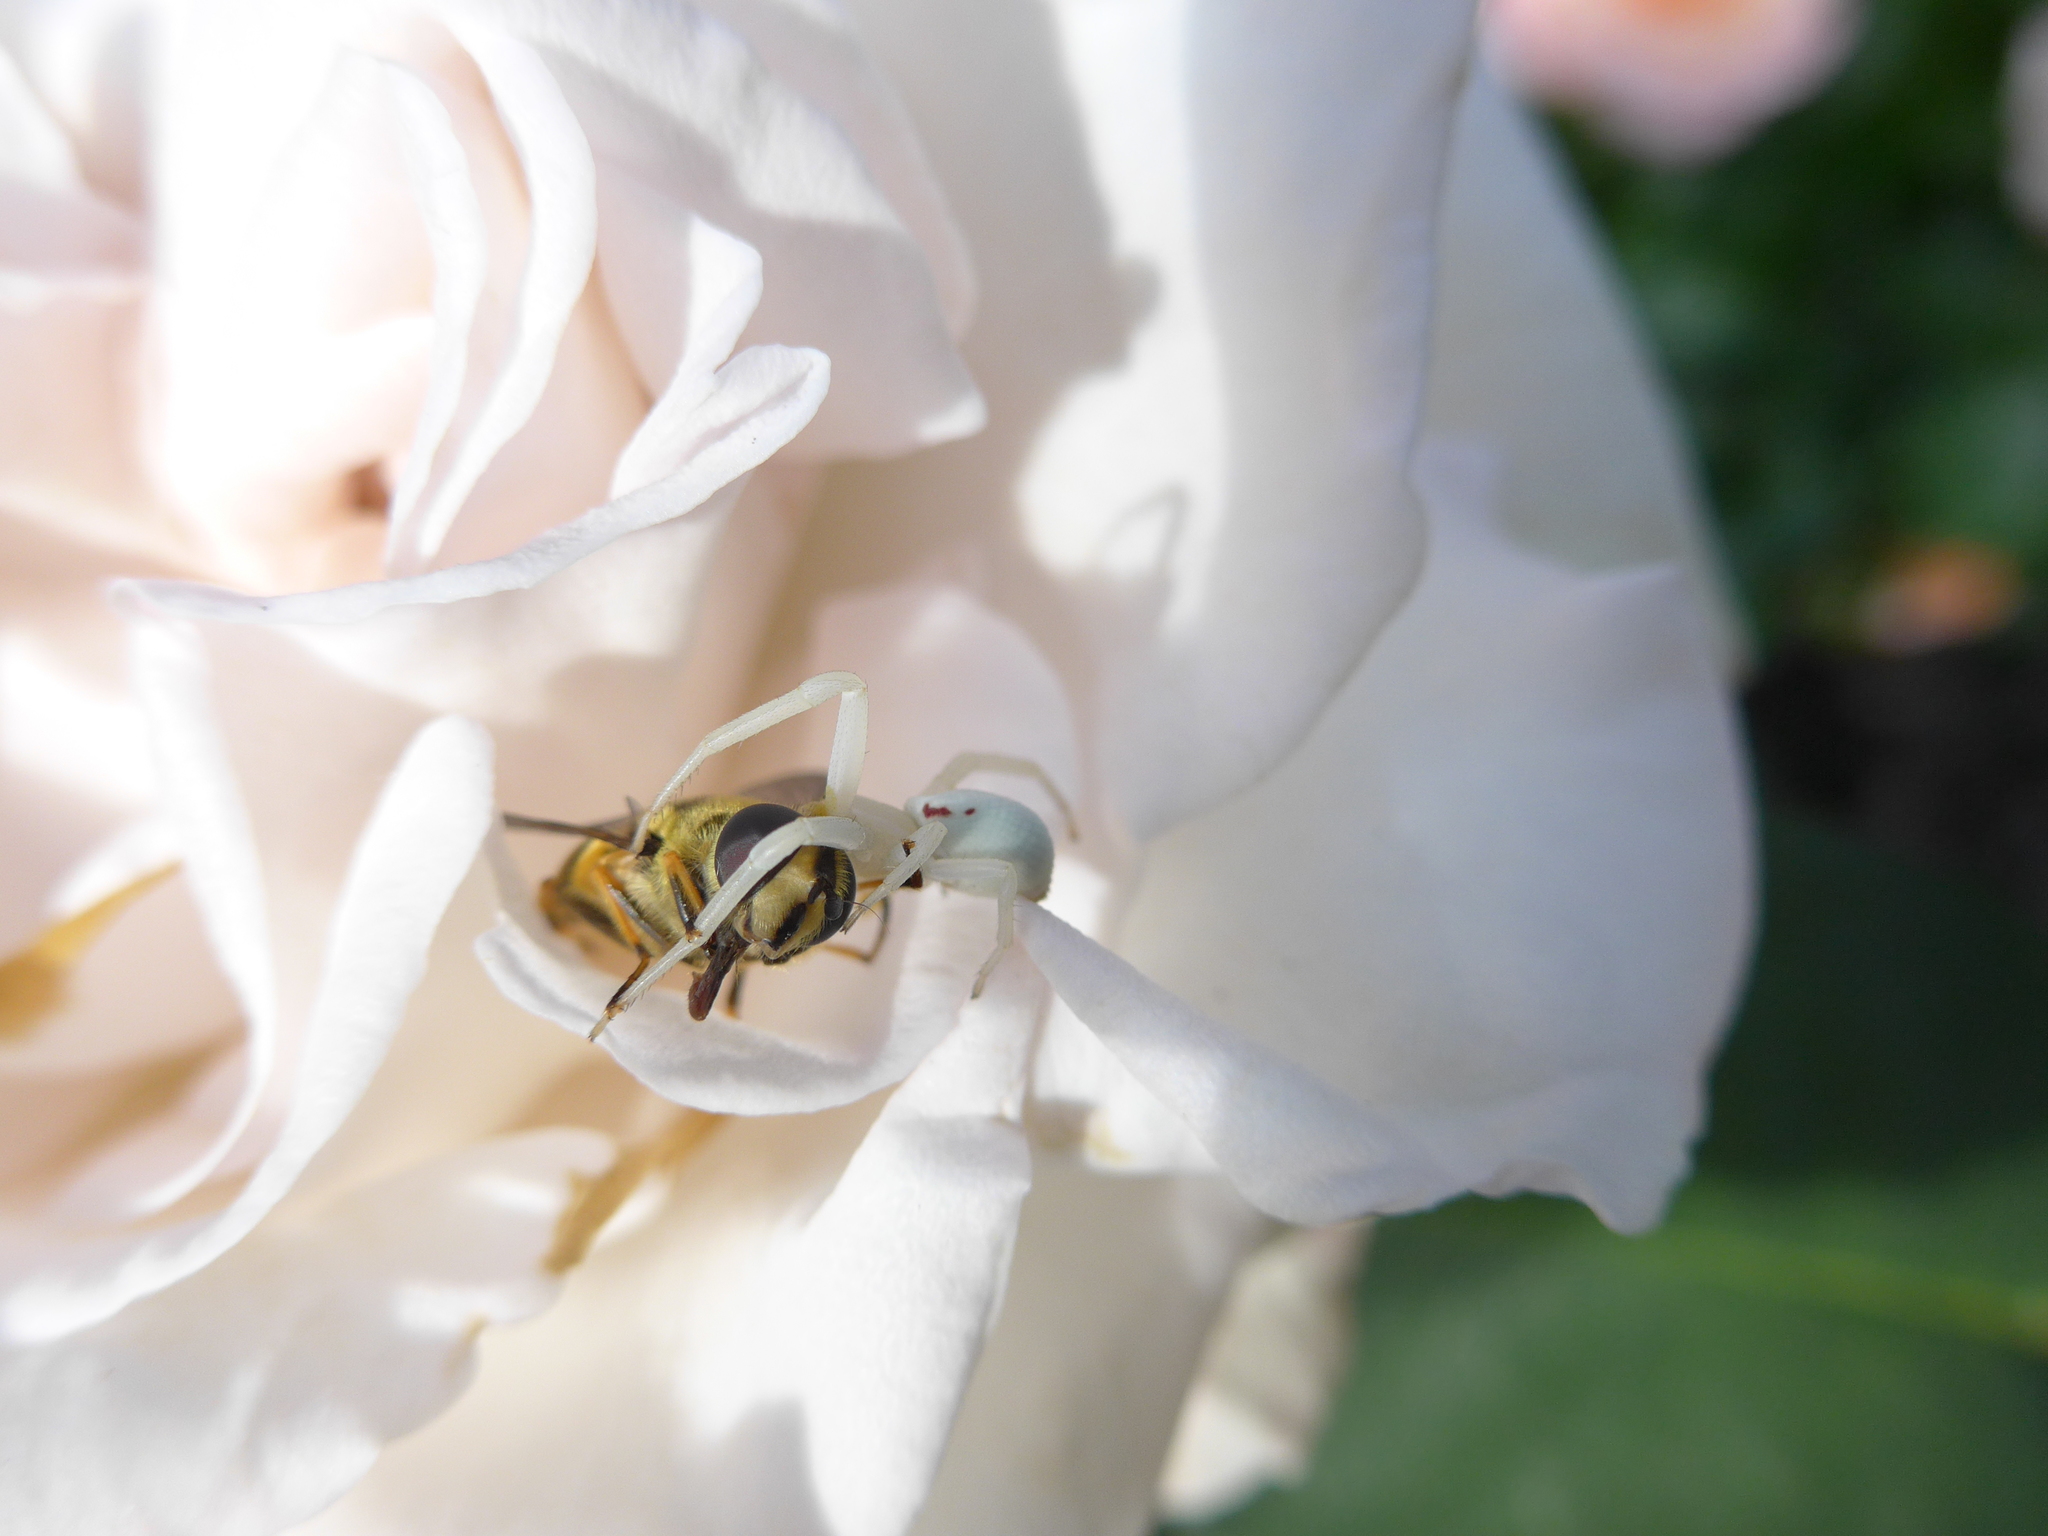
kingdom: Animalia
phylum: Arthropoda
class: Arachnida
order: Araneae
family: Thomisidae
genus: Misumena
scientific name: Misumena vatia
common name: Goldenrod crab spider
